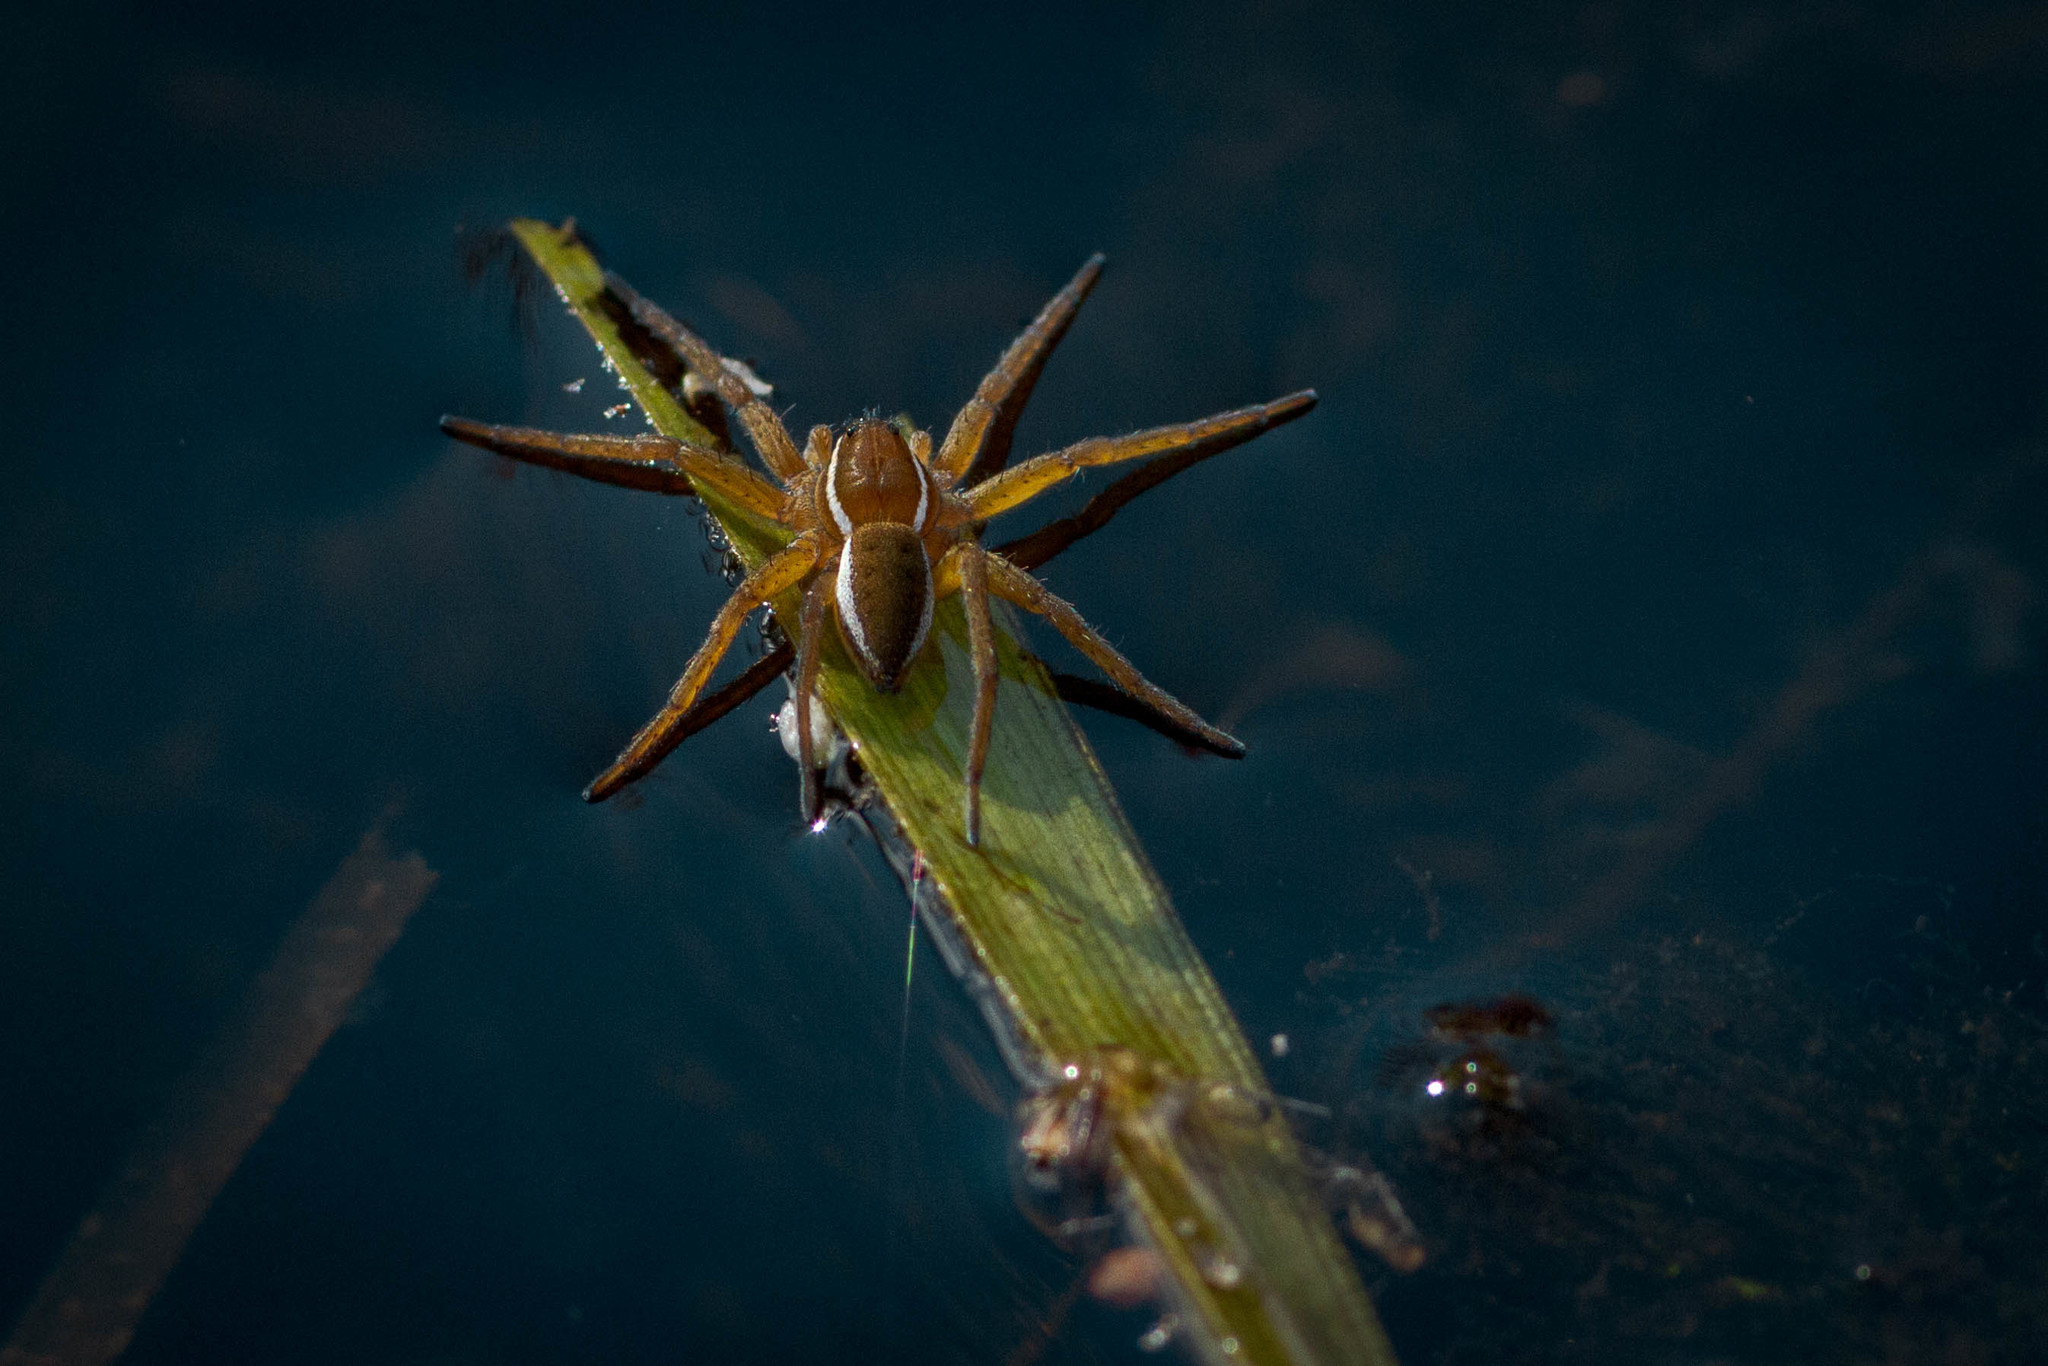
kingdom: Animalia
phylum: Arthropoda
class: Arachnida
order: Araneae
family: Pisauridae
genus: Dolomedes
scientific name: Dolomedes triton
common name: Six-spotted fishing spider
